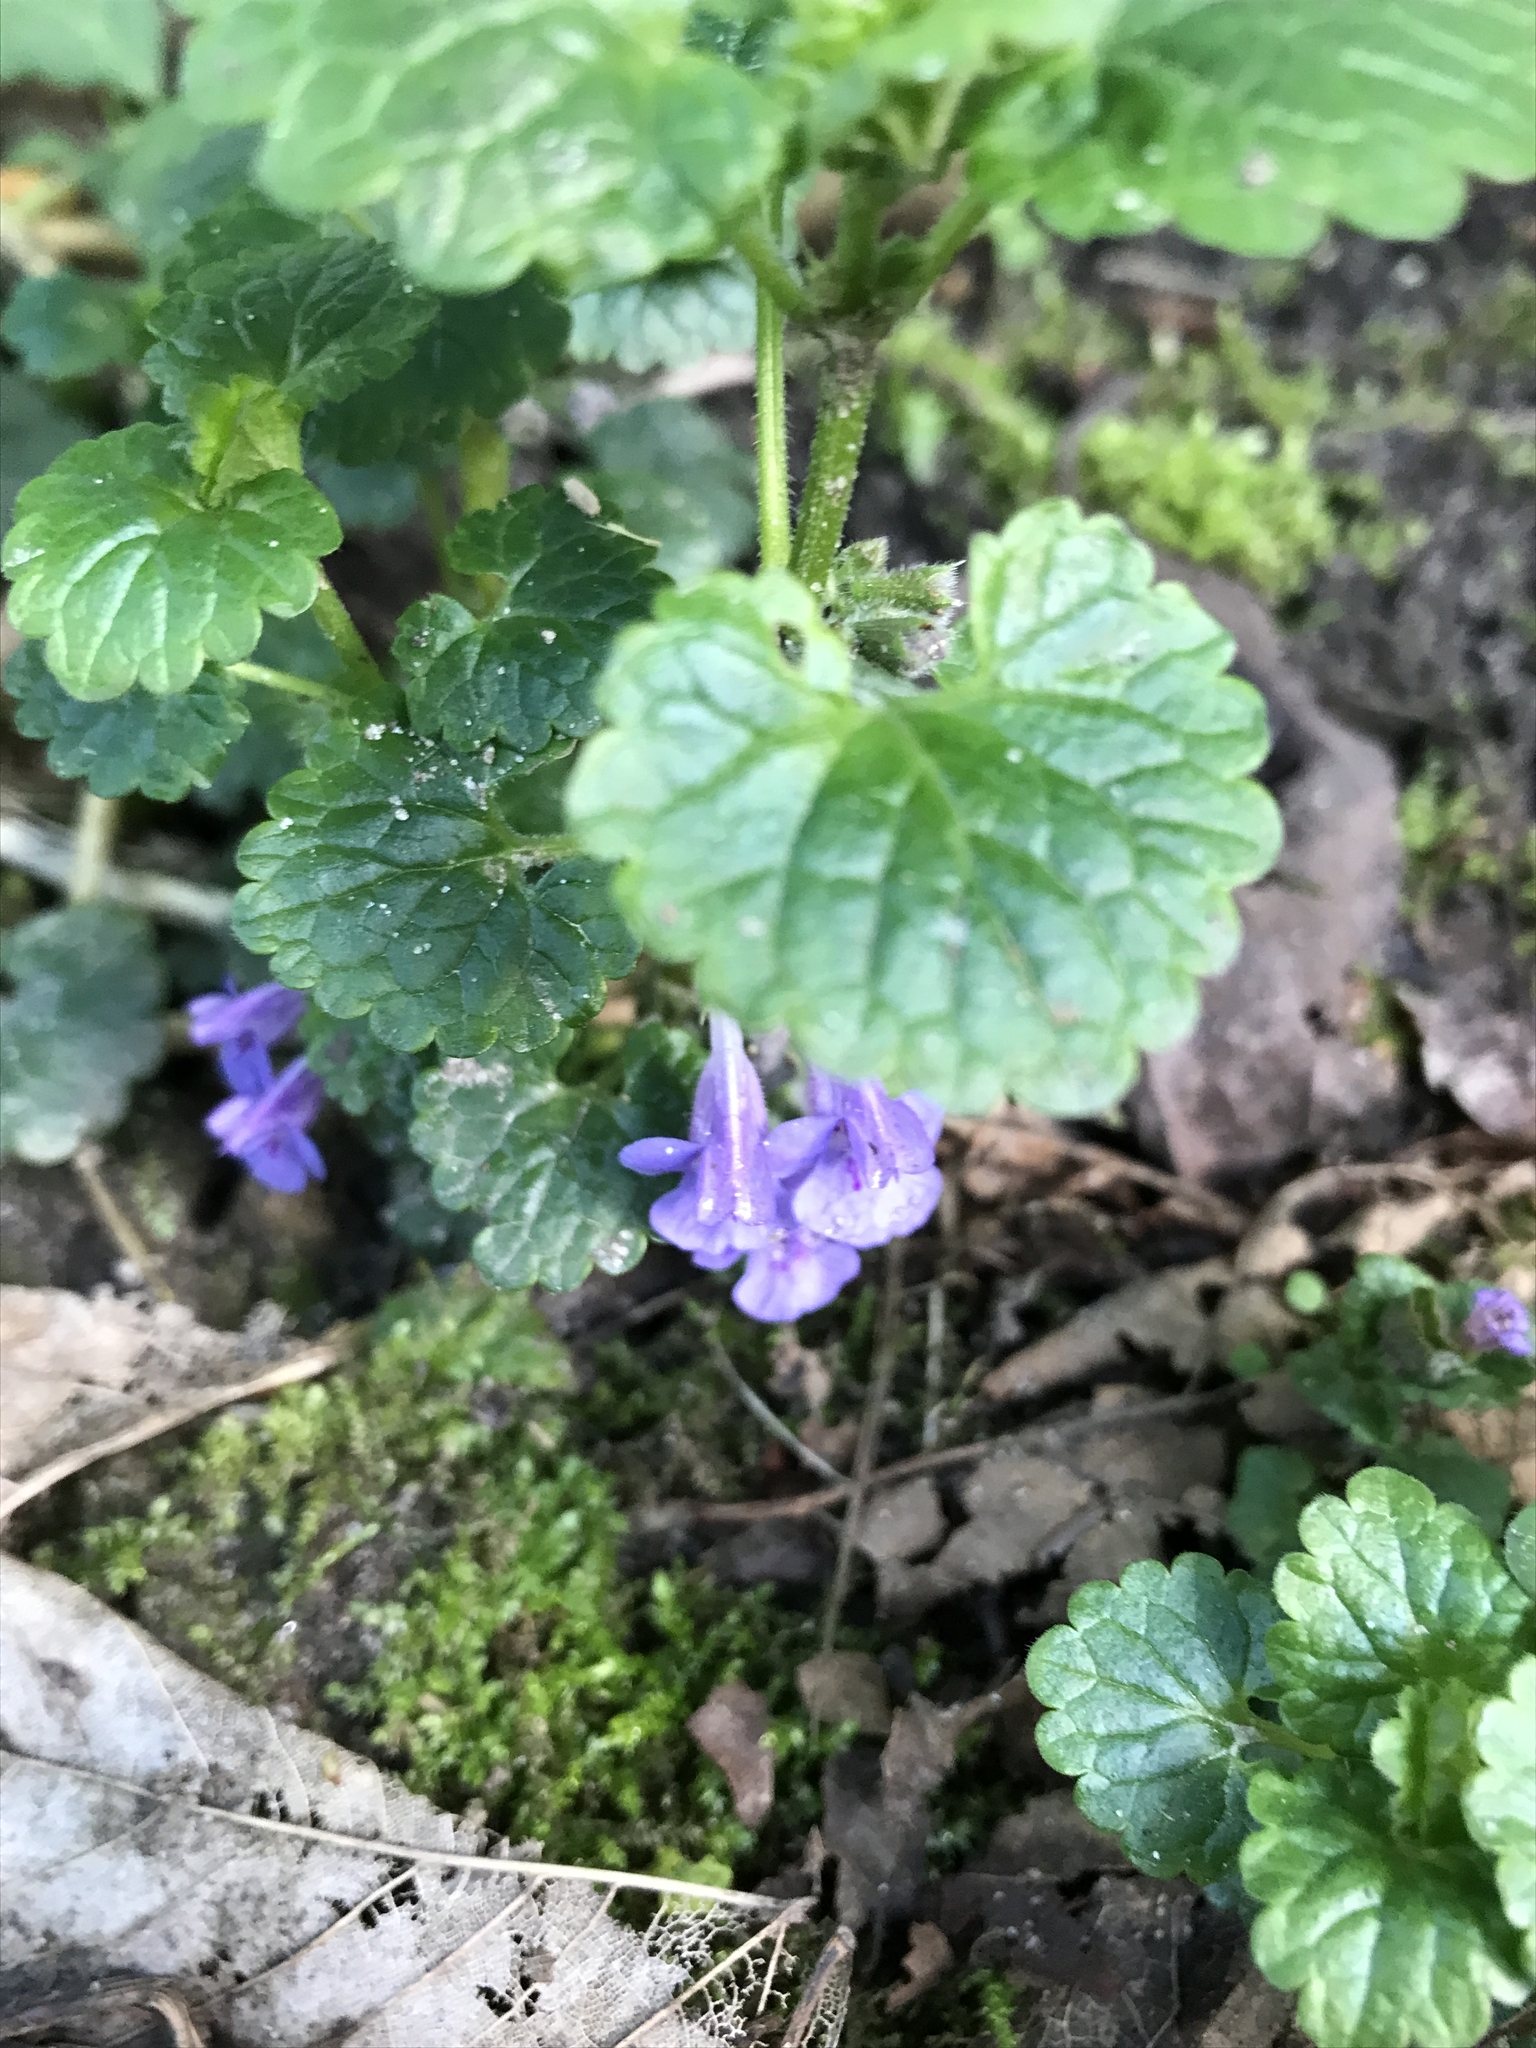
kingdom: Plantae
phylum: Tracheophyta
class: Magnoliopsida
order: Lamiales
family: Lamiaceae
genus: Glechoma
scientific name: Glechoma hederacea
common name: Ground ivy
